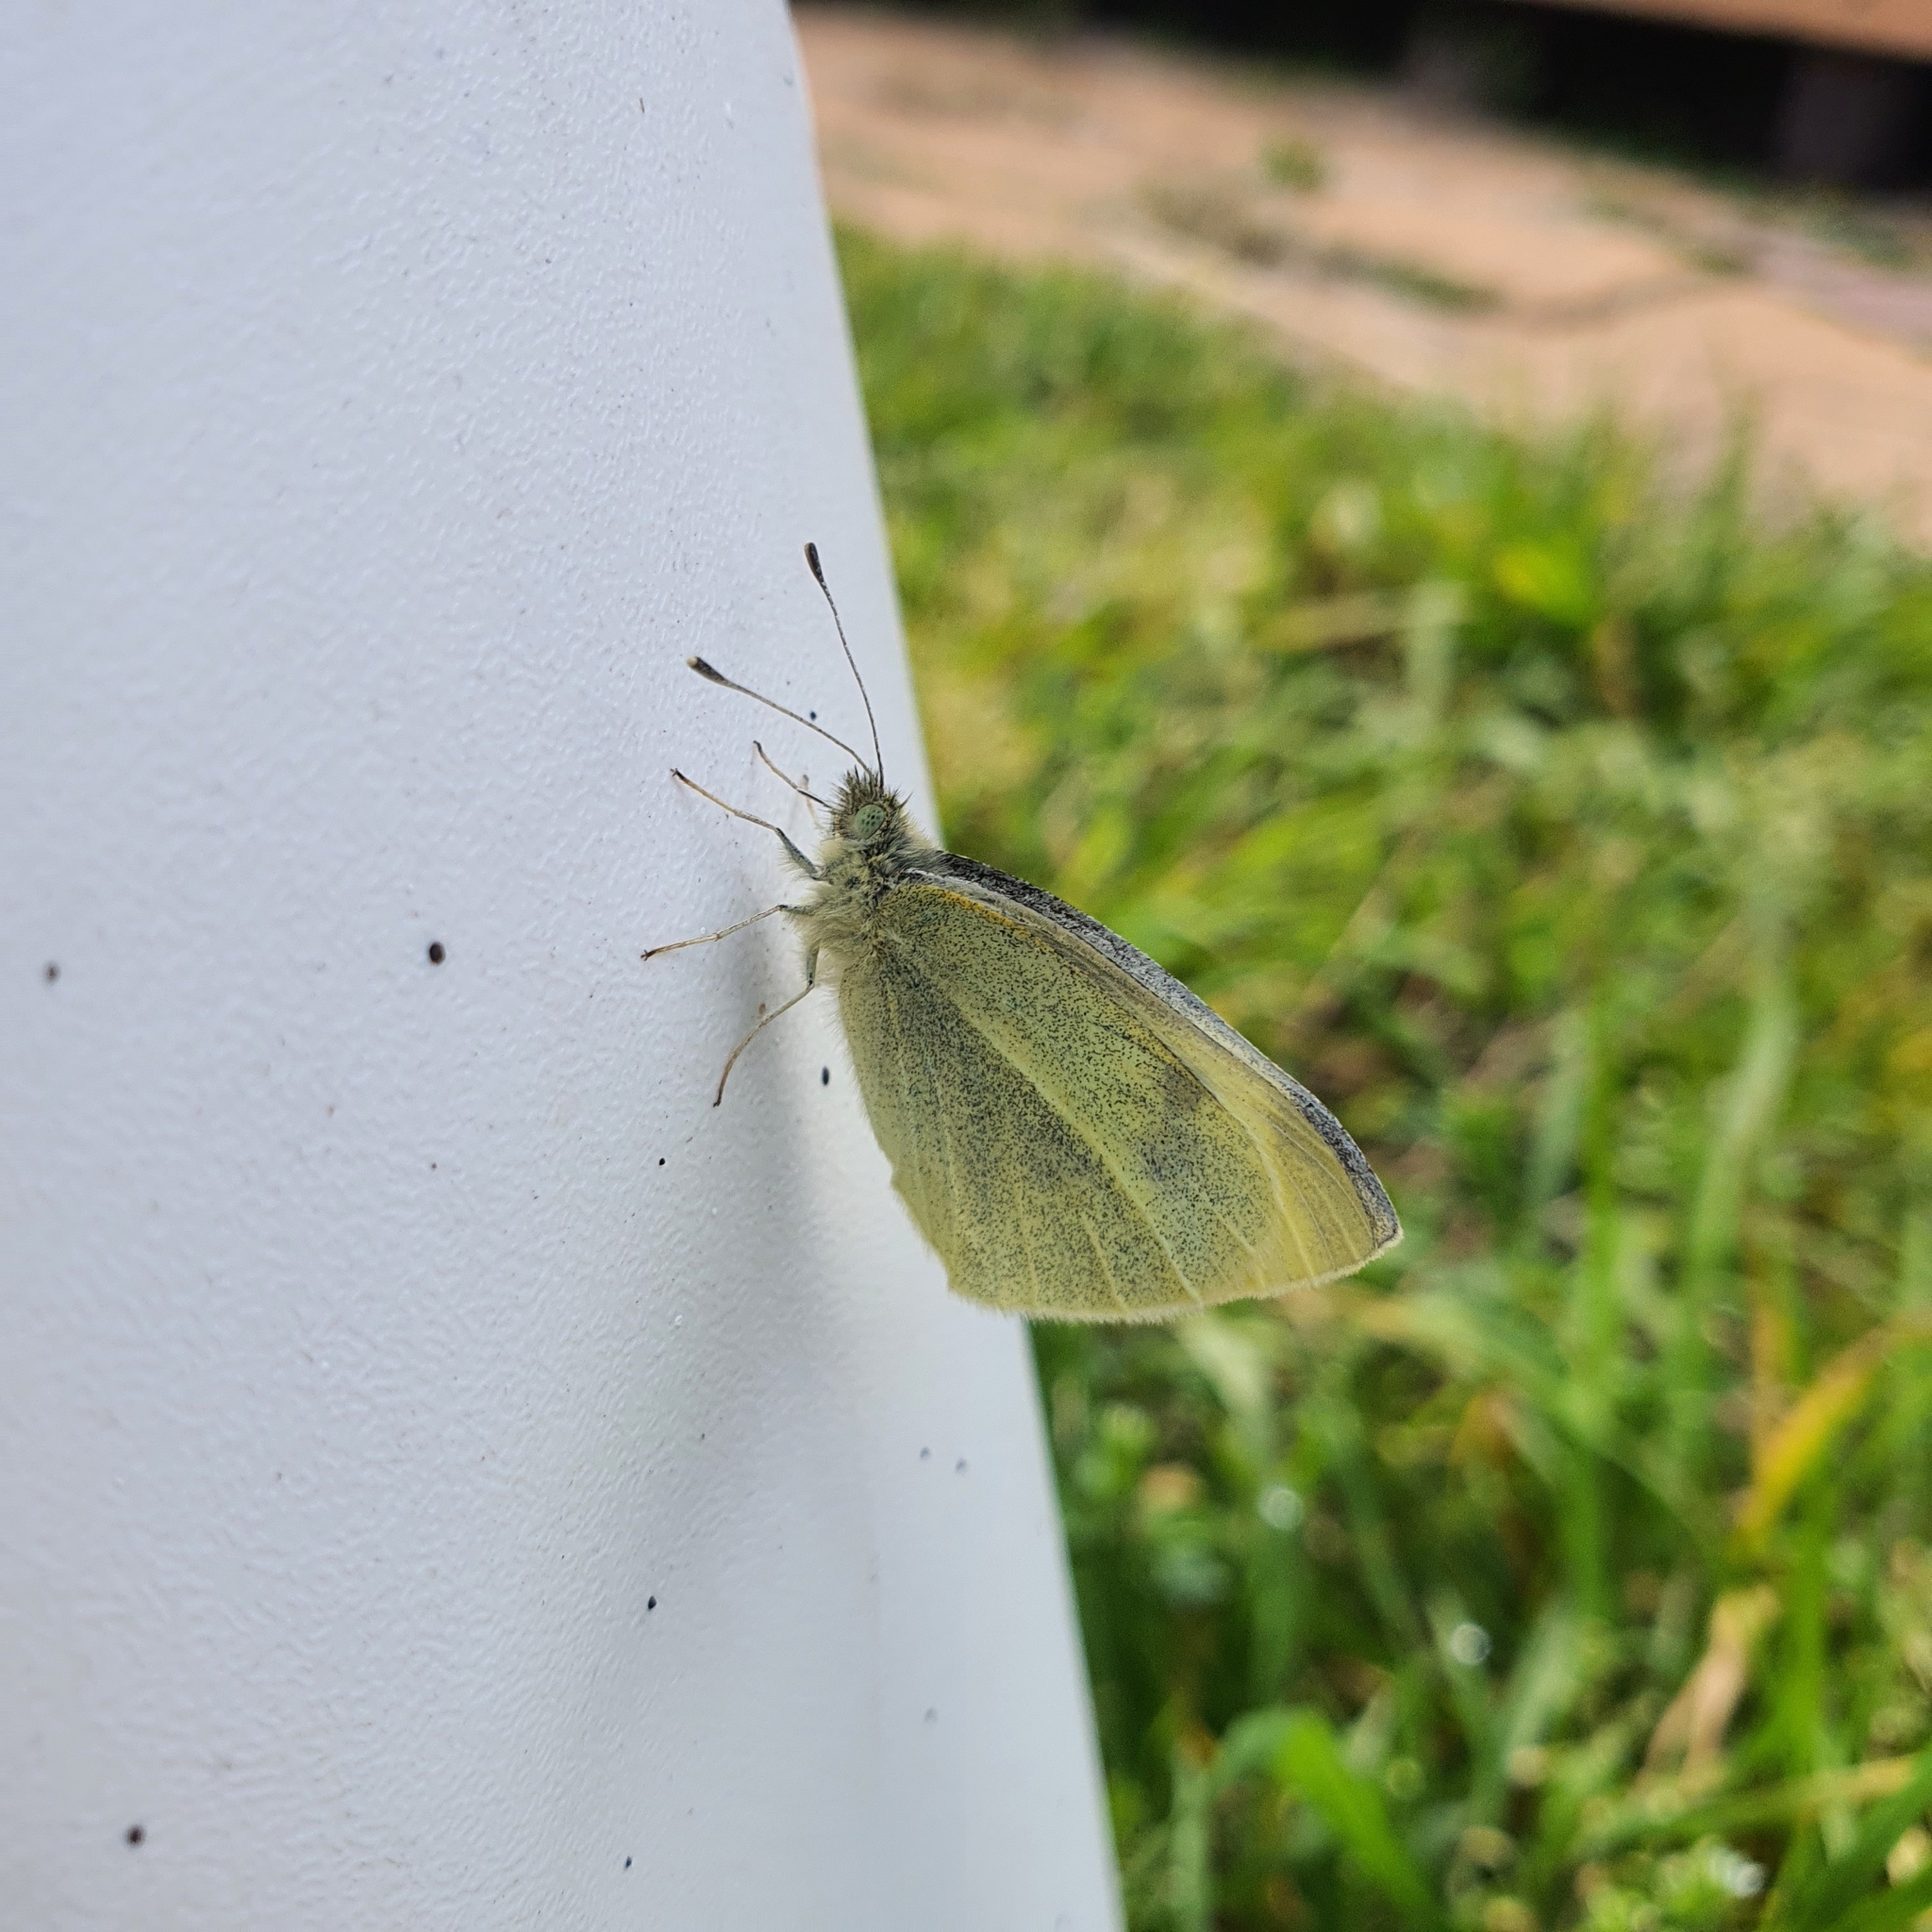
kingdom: Animalia
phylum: Arthropoda
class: Insecta
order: Lepidoptera
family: Pieridae
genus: Pieris
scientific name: Pieris rapae
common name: Small white
